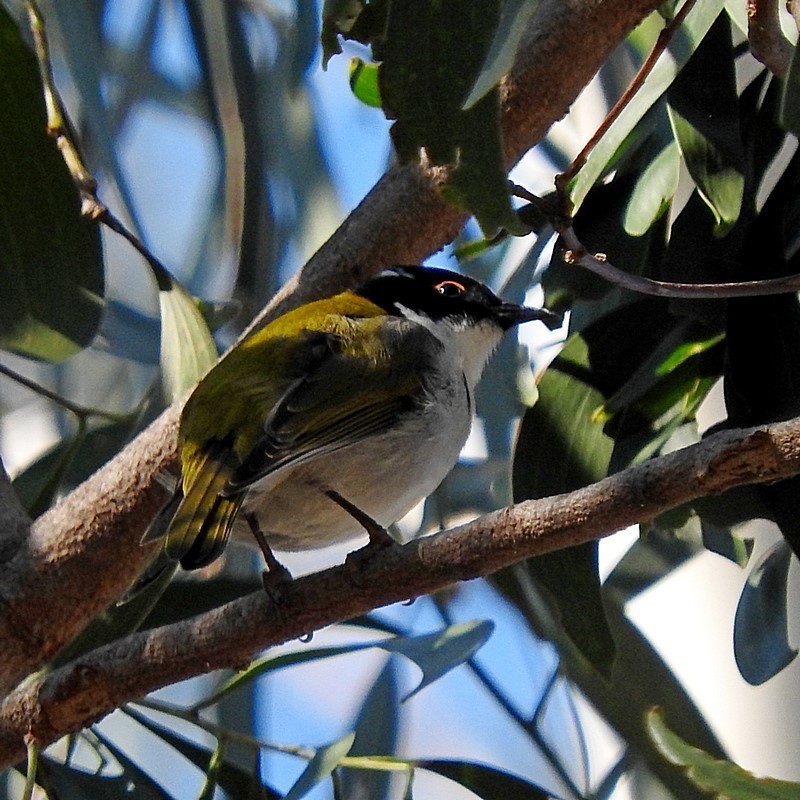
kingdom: Animalia
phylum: Chordata
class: Aves
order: Passeriformes
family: Meliphagidae
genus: Melithreptus
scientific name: Melithreptus lunatus
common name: White-naped honeyeater
